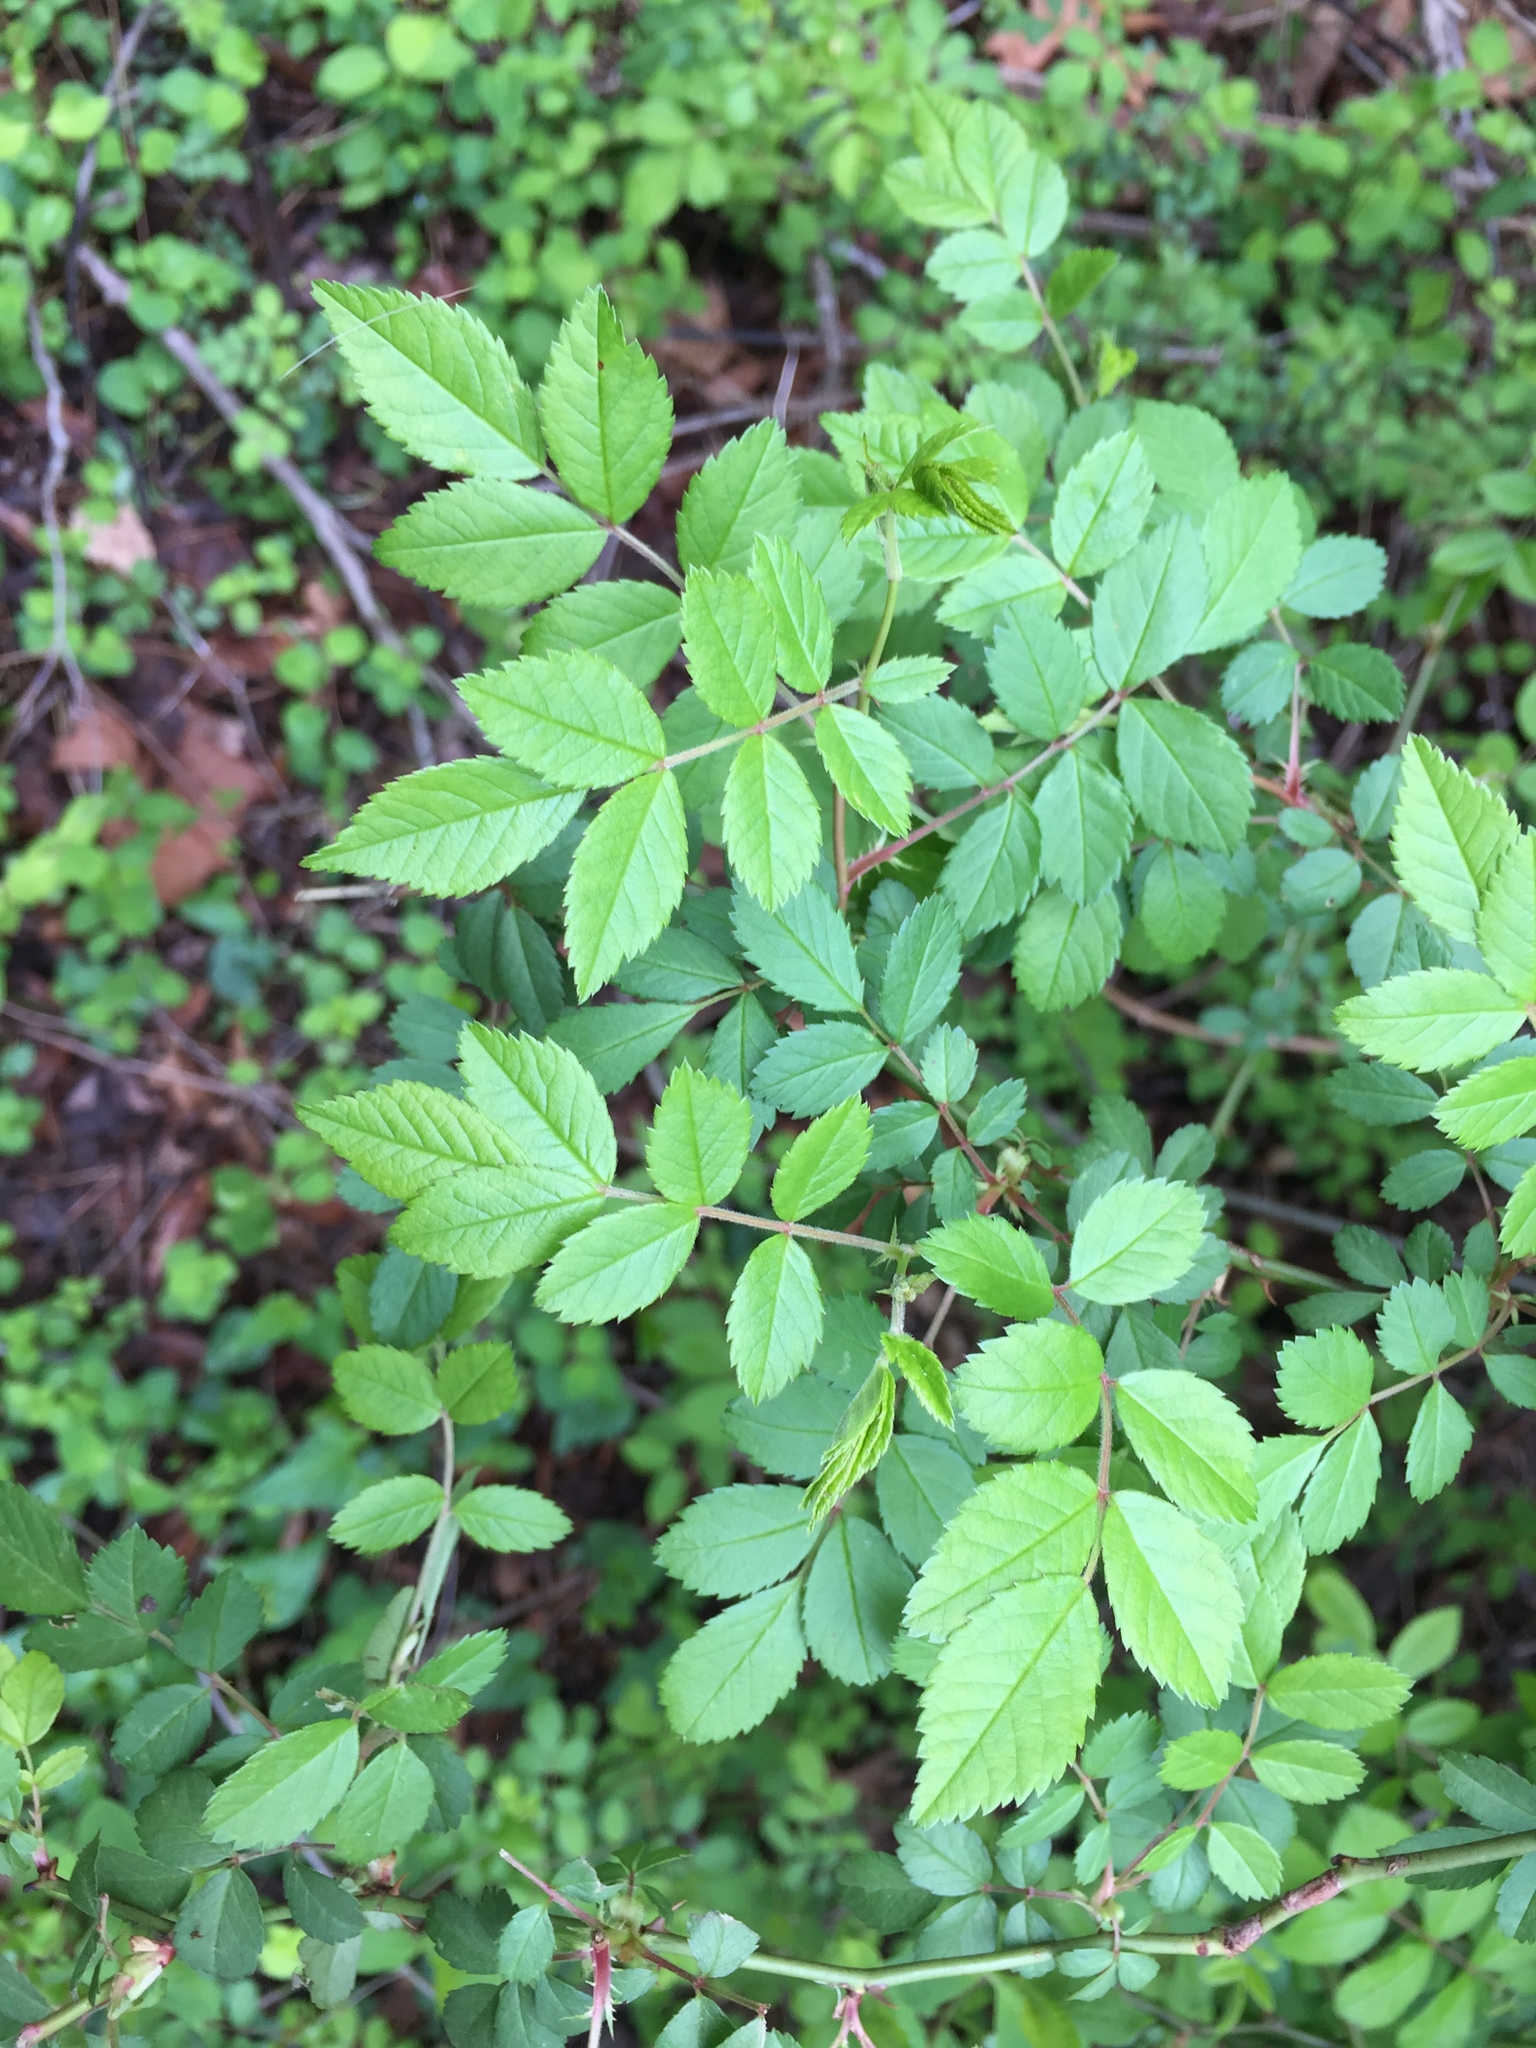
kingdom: Plantae
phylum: Tracheophyta
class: Magnoliopsida
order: Rosales
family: Rosaceae
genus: Rosa
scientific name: Rosa multiflora
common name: Multiflora rose
